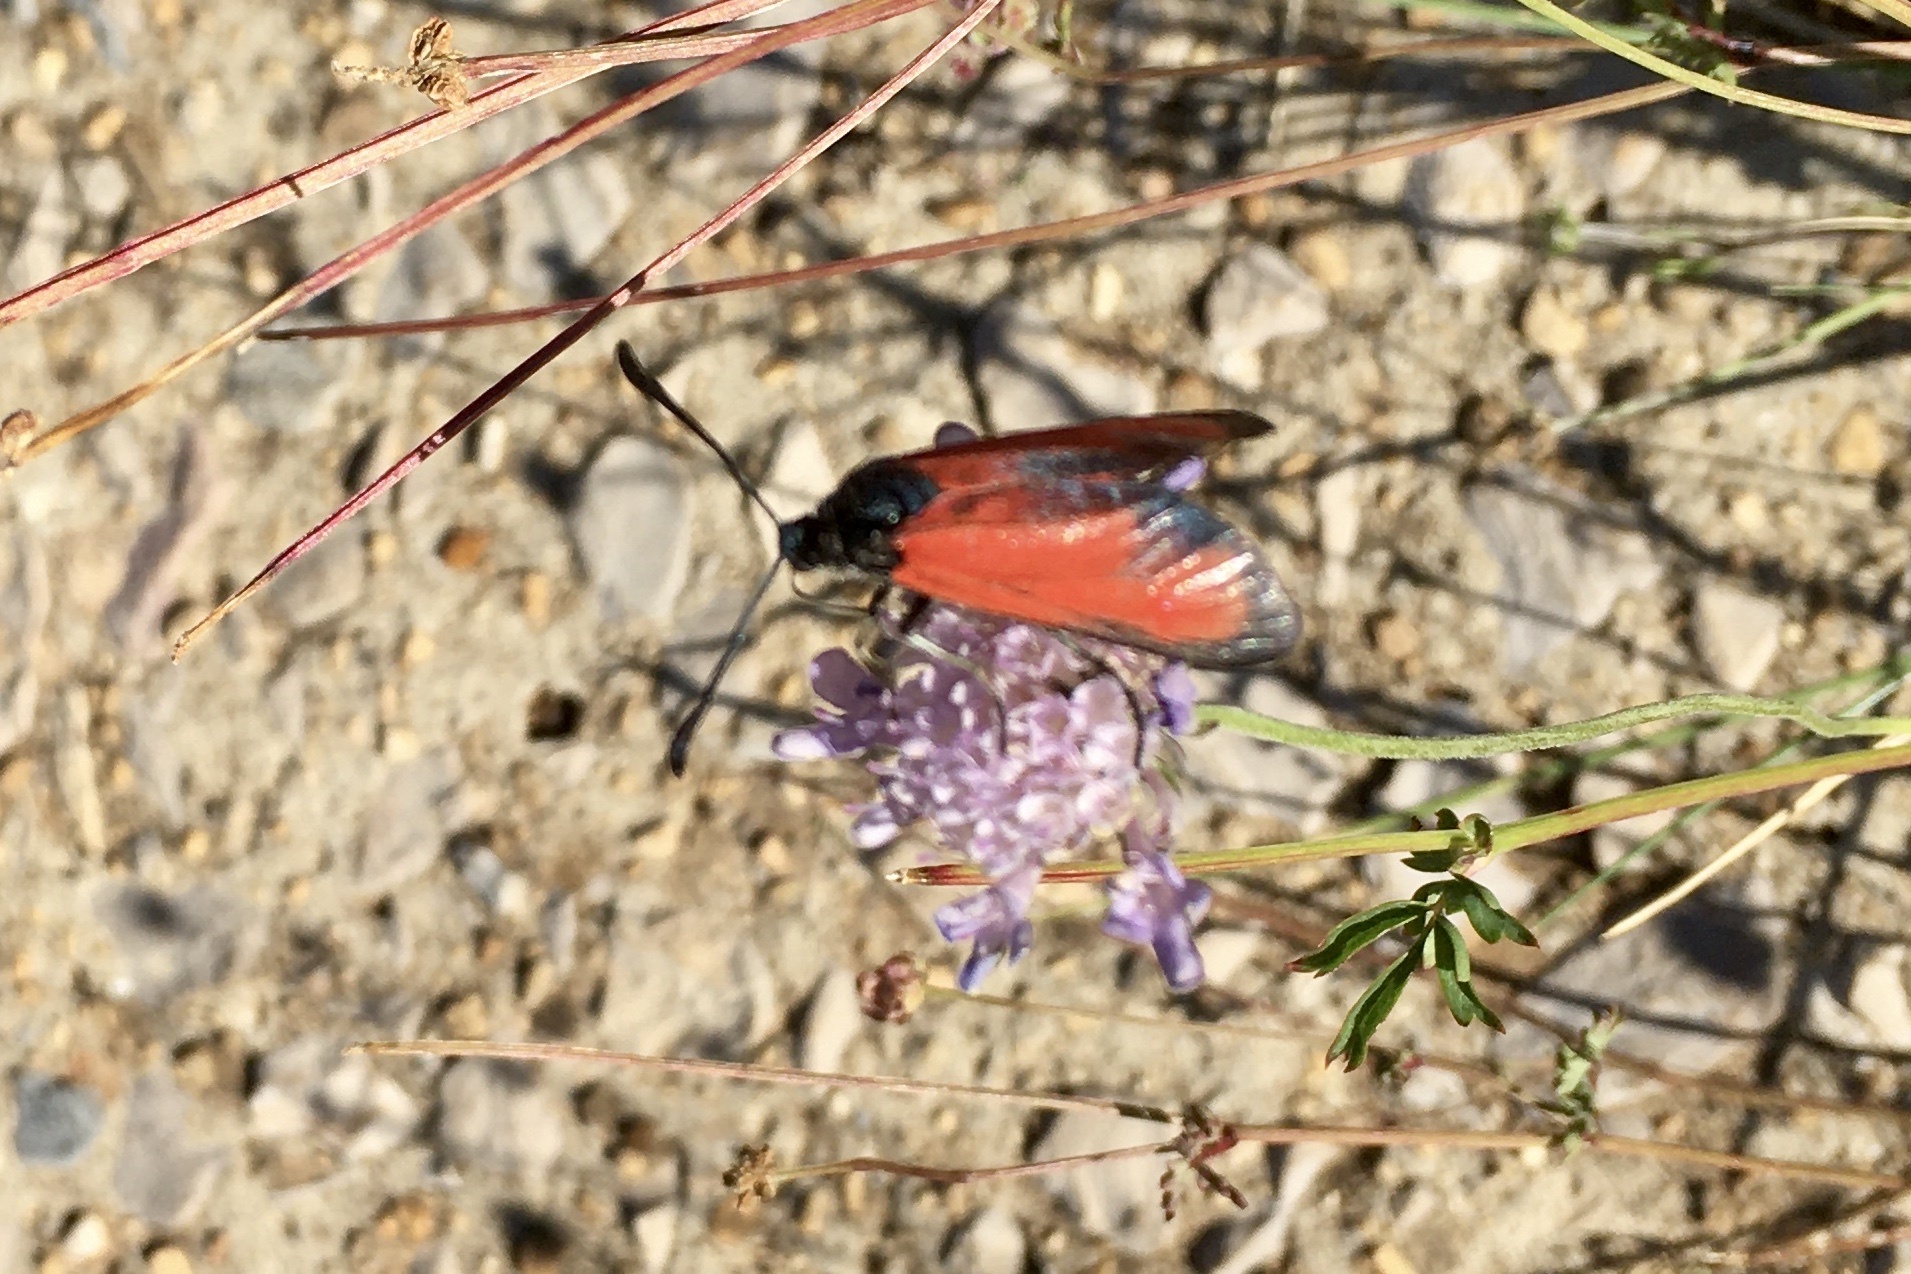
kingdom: Animalia
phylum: Arthropoda
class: Insecta
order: Lepidoptera
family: Zygaenidae
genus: Zygaena
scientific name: Zygaena erythrus
